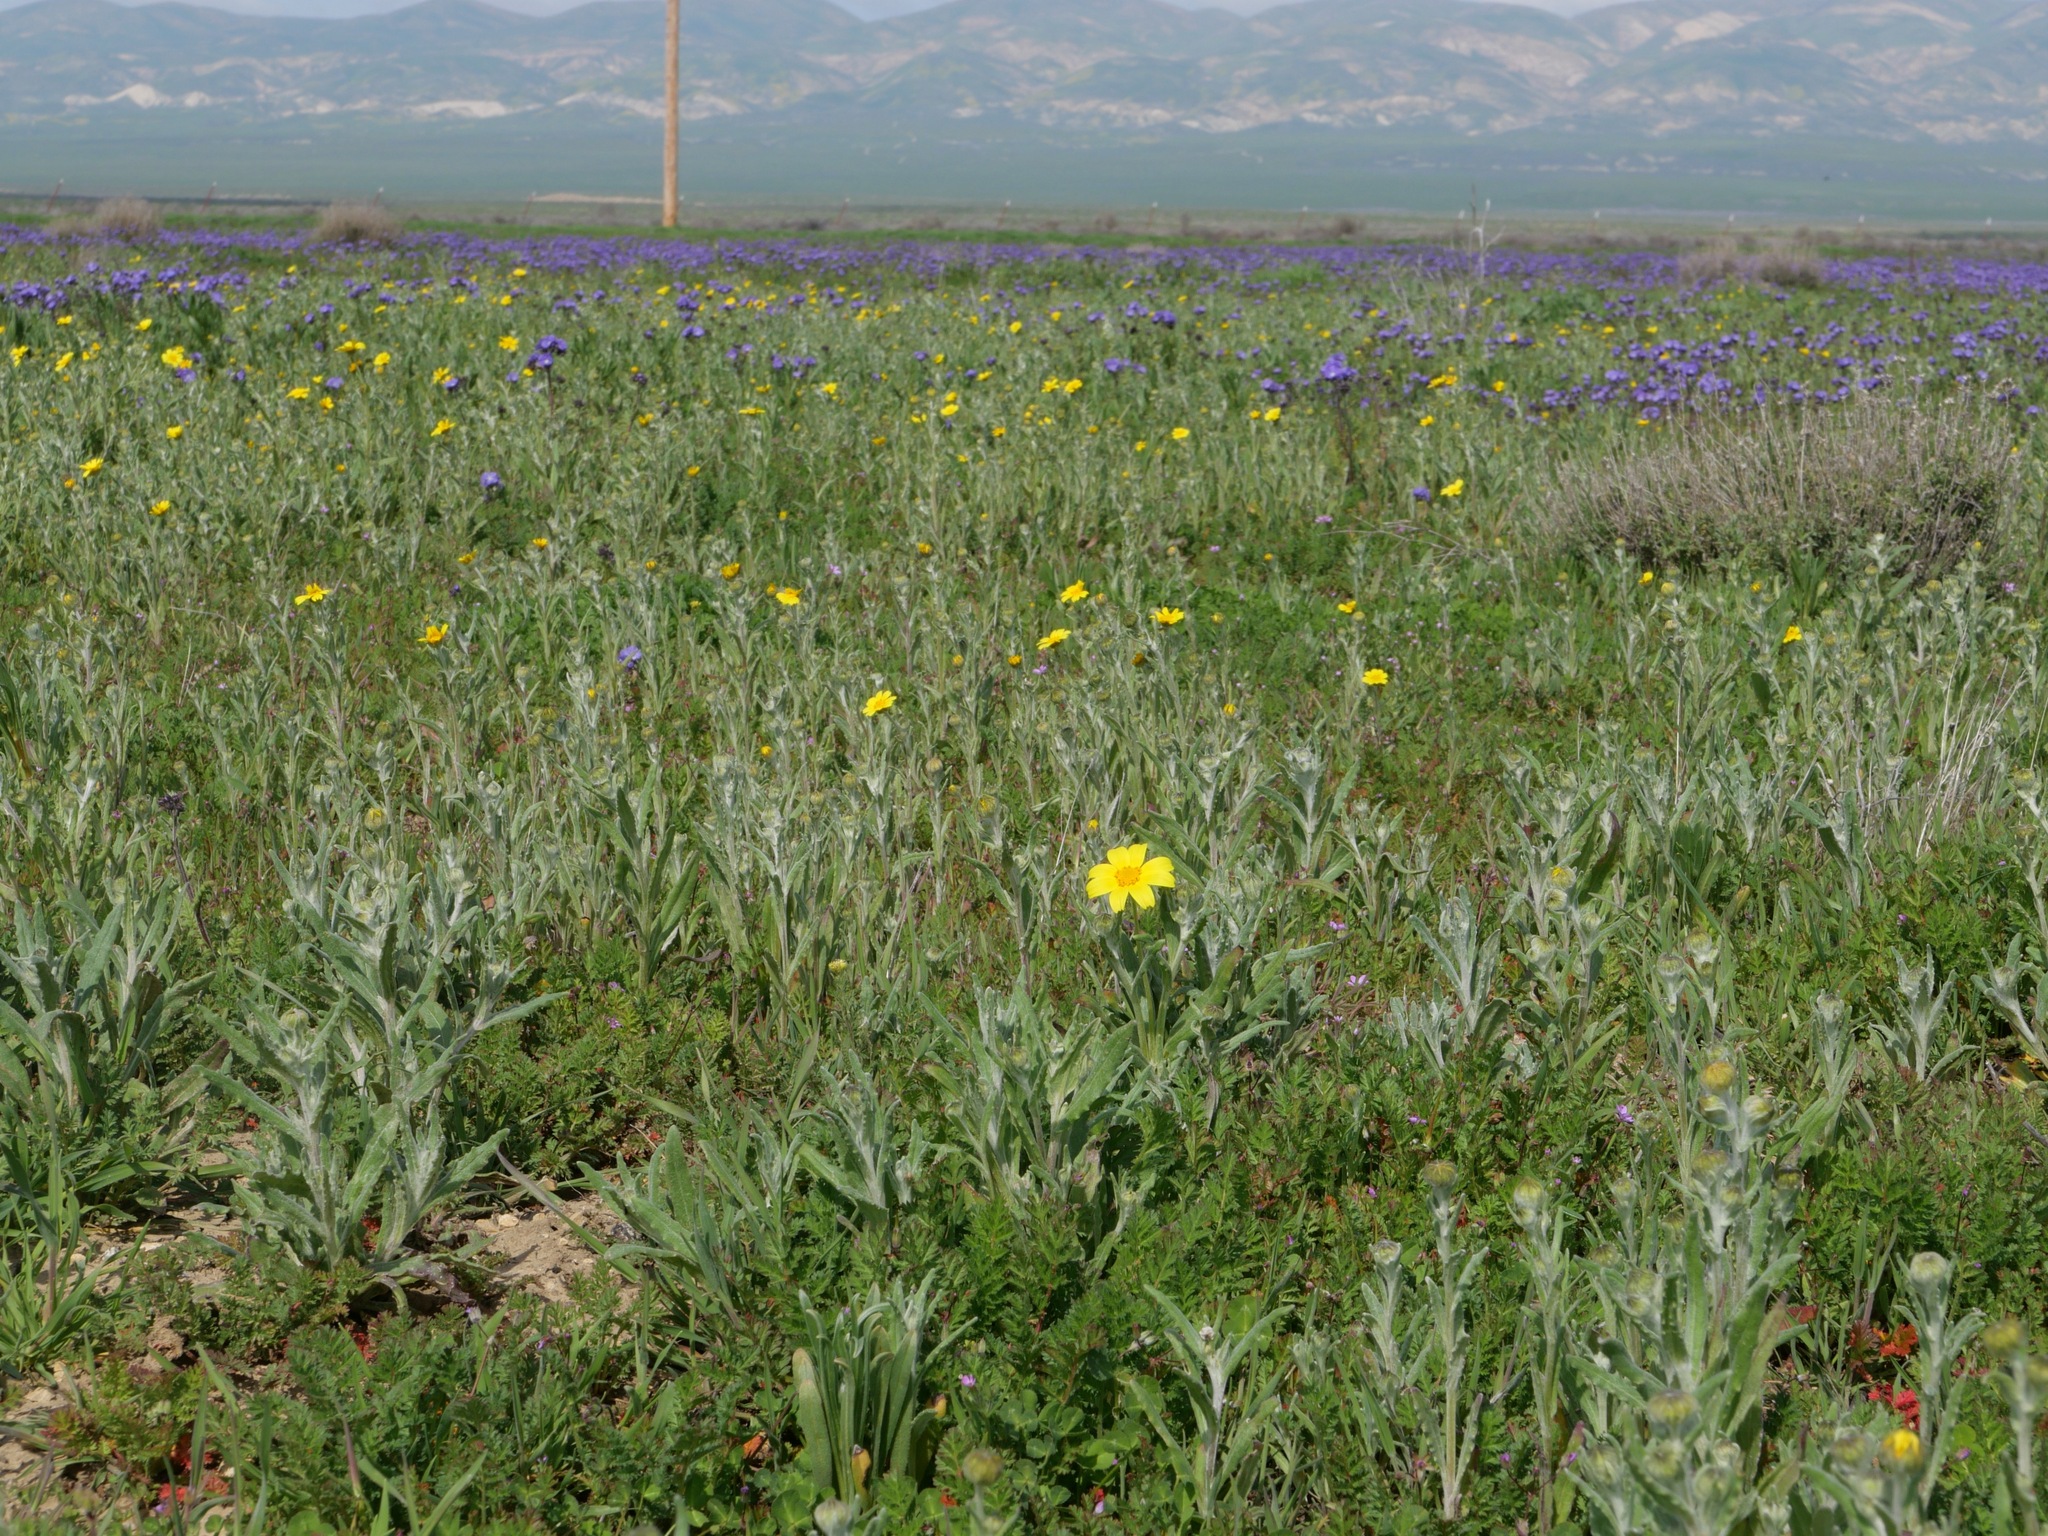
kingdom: Plantae
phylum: Tracheophyta
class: Magnoliopsida
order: Asterales
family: Asteraceae
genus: Monolopia
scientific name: Monolopia lanceolata
